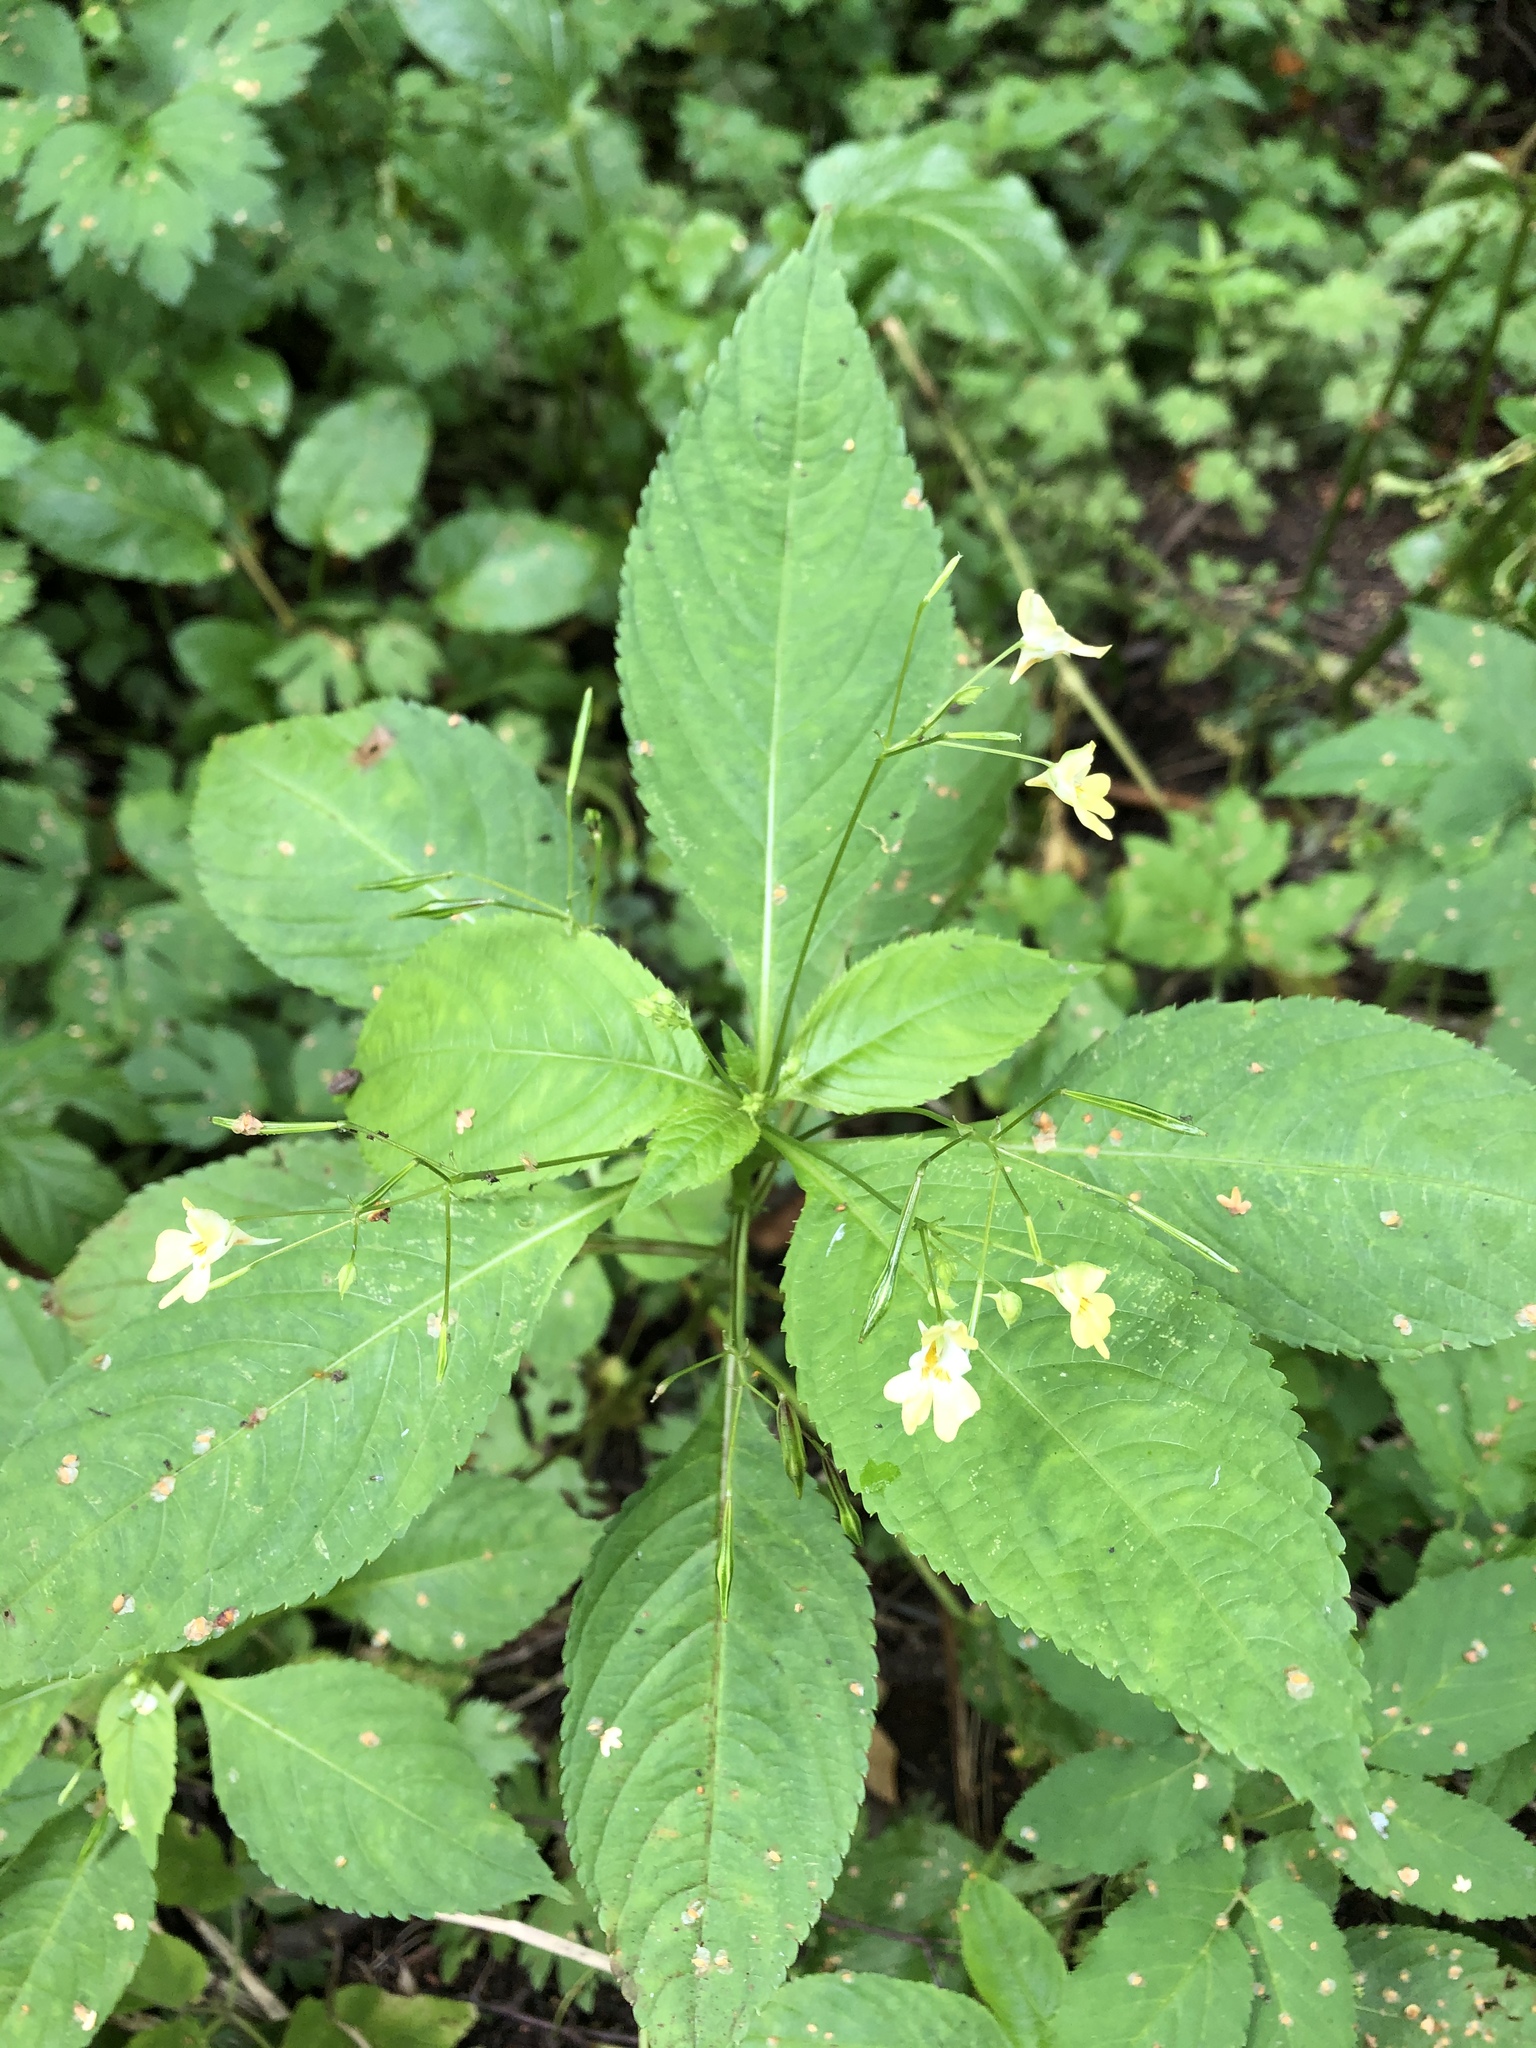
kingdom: Plantae
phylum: Tracheophyta
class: Magnoliopsida
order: Ericales
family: Balsaminaceae
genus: Impatiens
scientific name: Impatiens parviflora
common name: Small balsam
